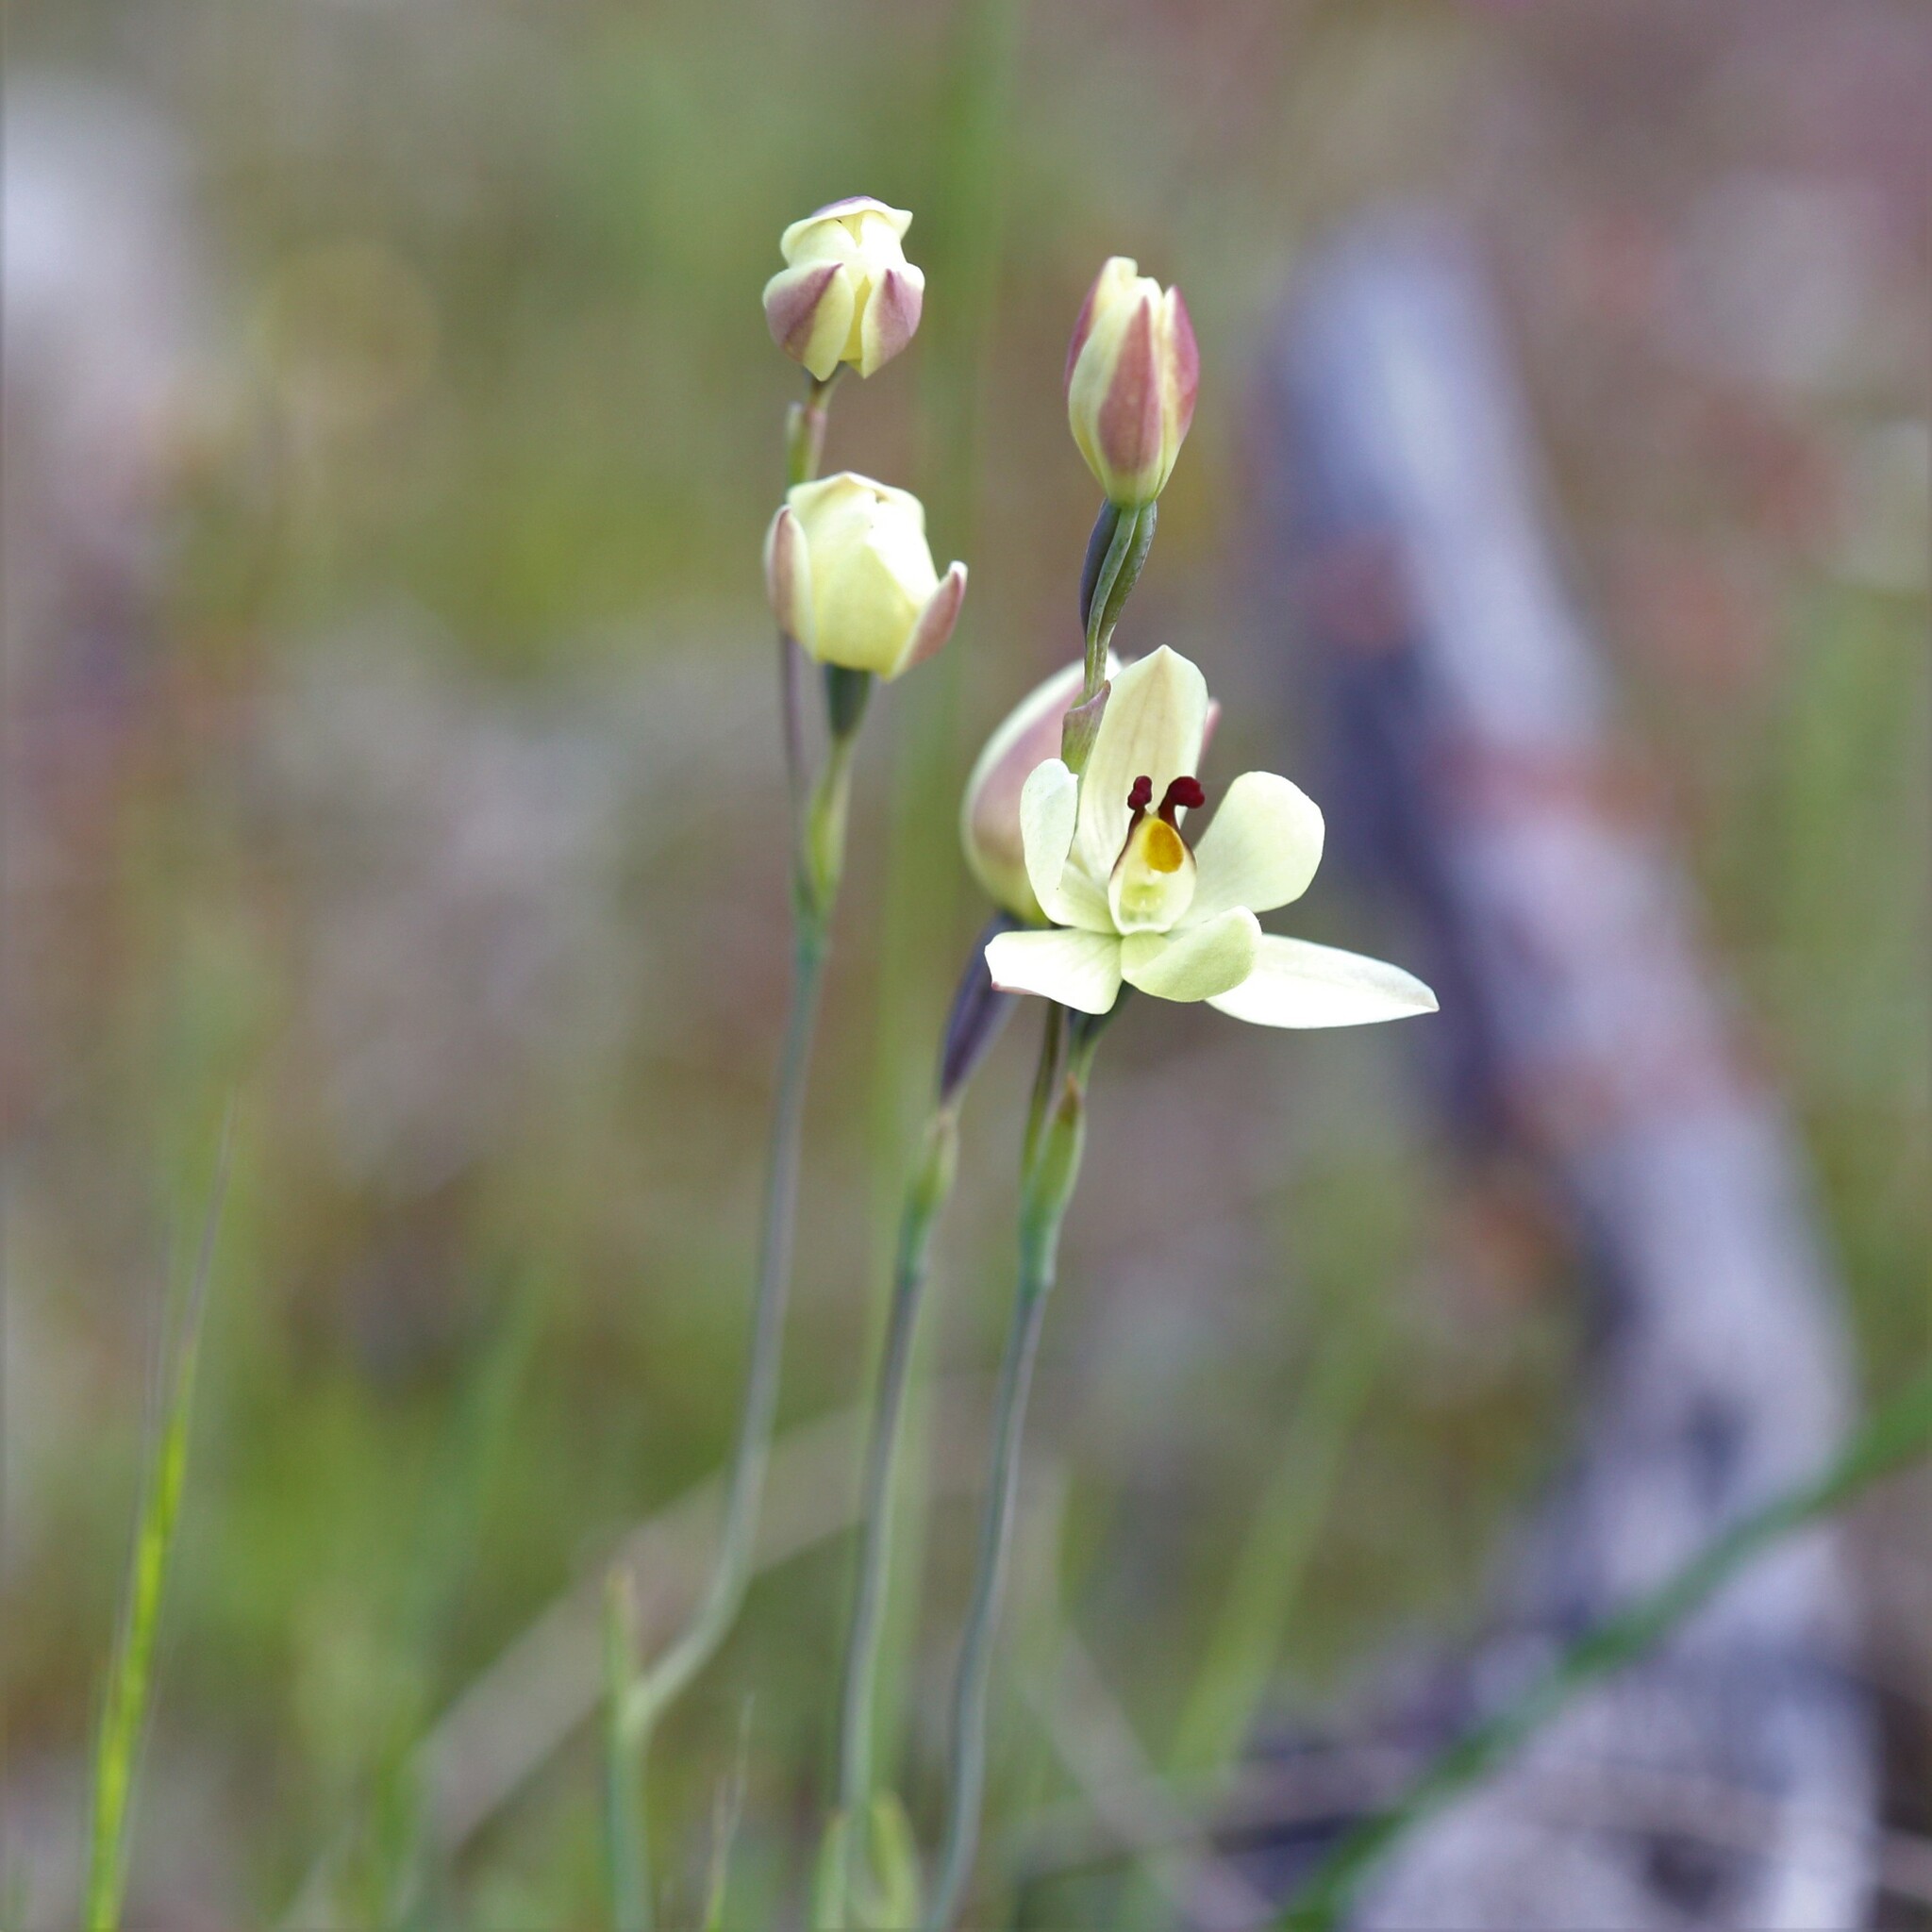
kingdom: Plantae
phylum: Tracheophyta
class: Liliopsida
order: Asparagales
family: Orchidaceae
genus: Thelymitra
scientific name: Thelymitra antennifera
